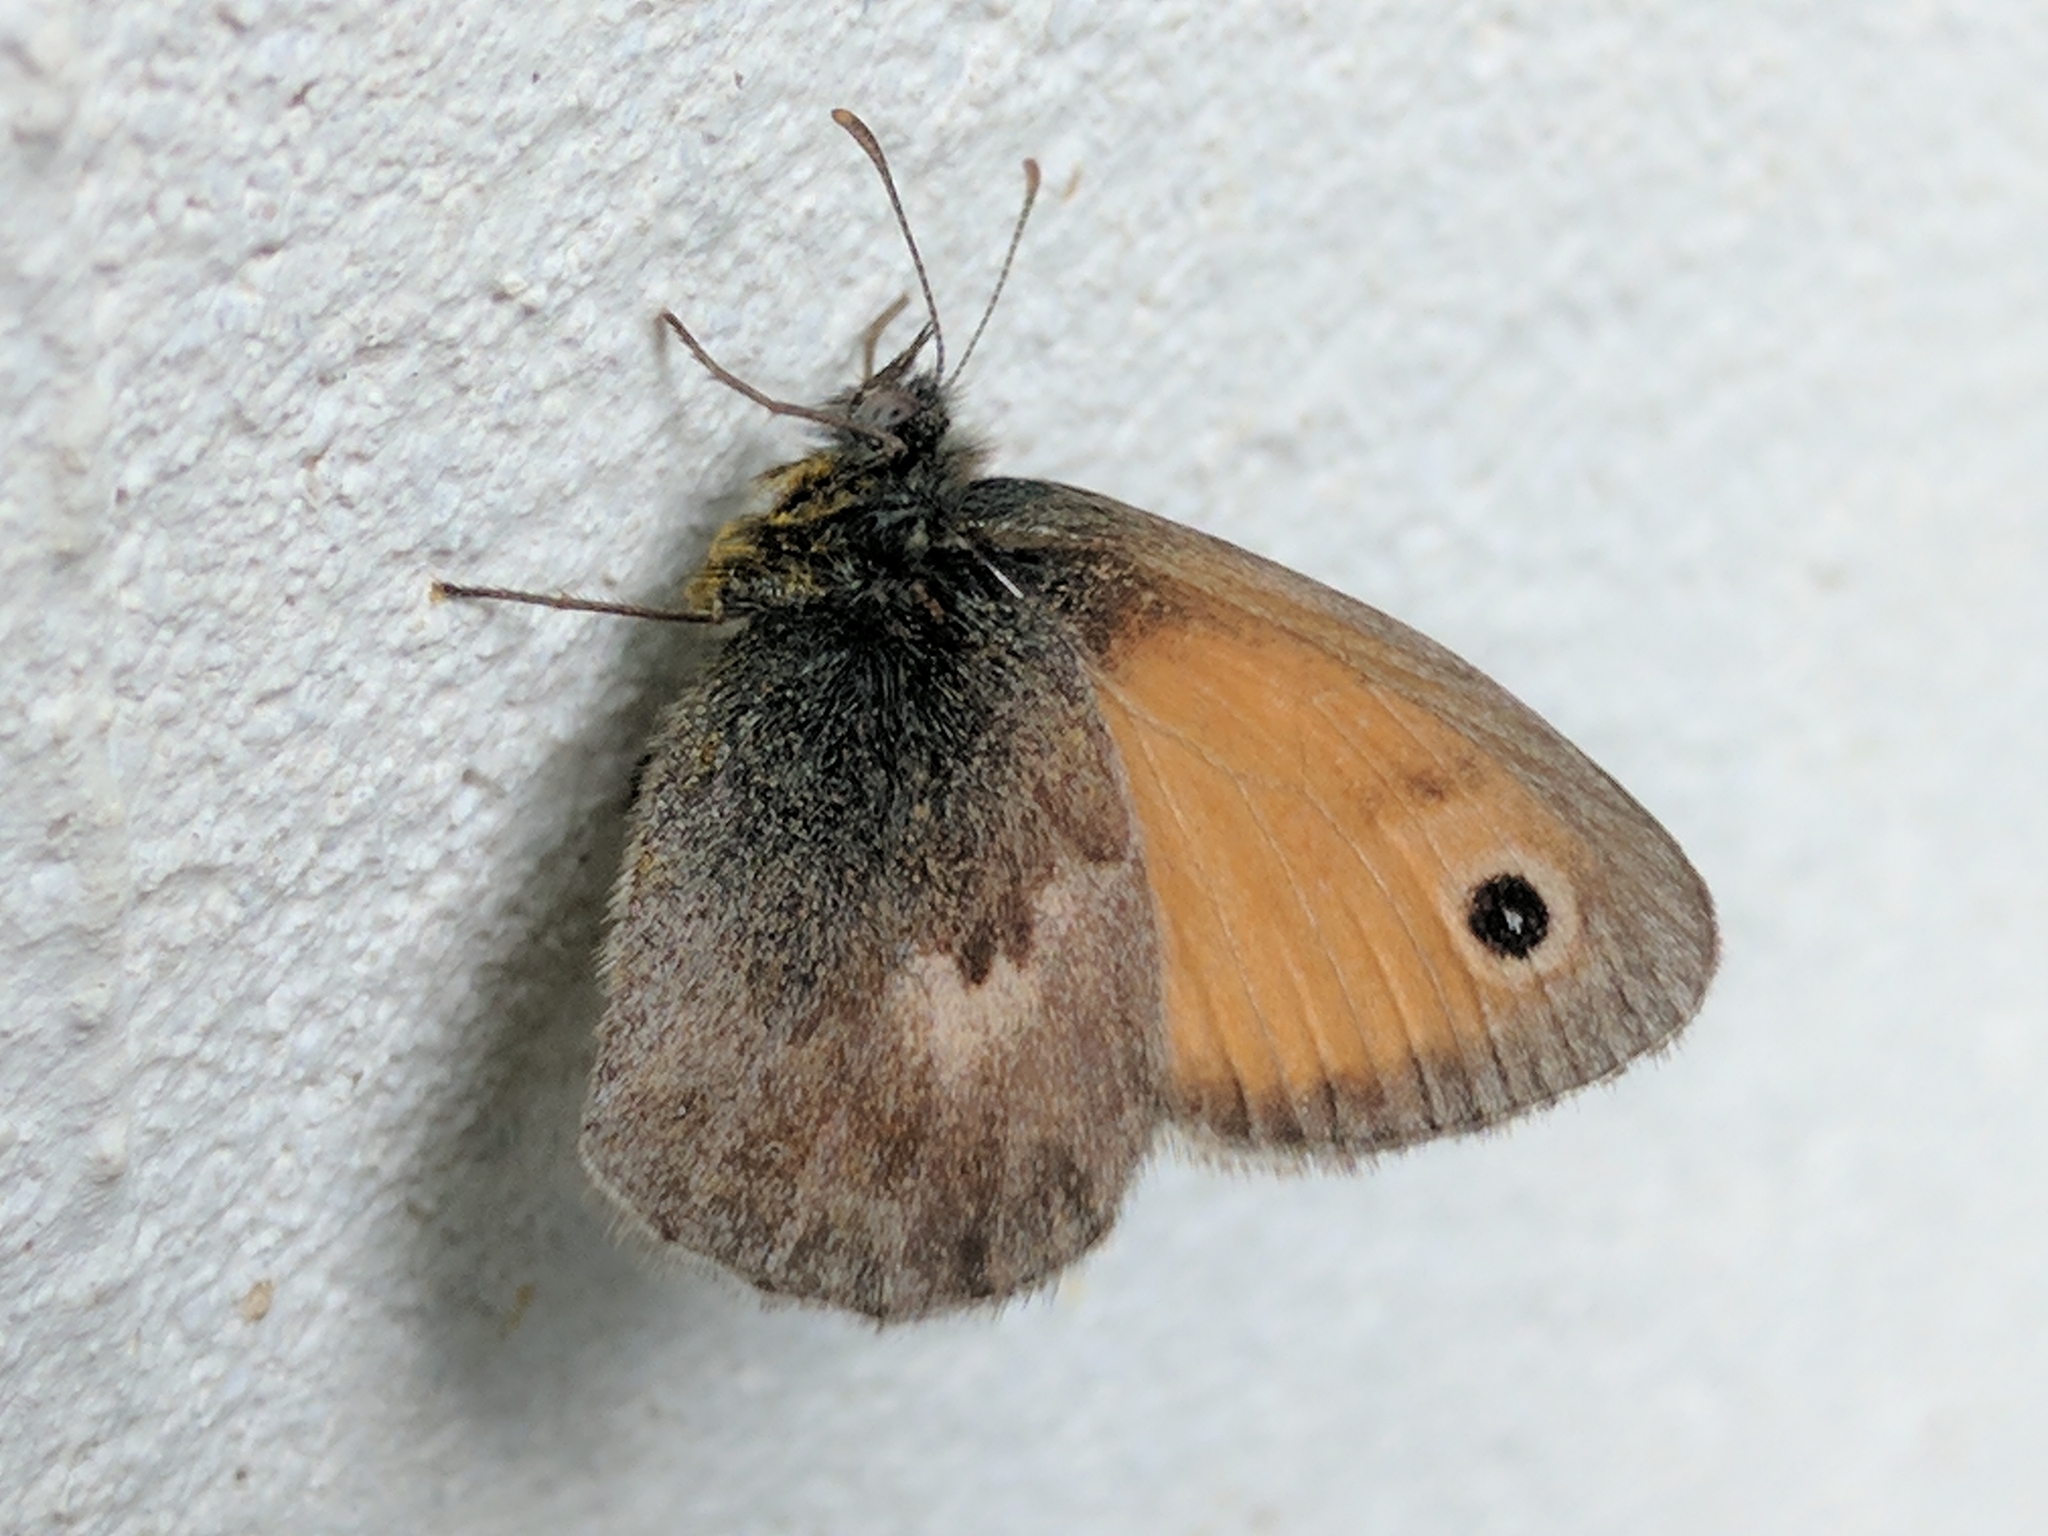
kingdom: Animalia
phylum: Arthropoda
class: Insecta
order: Lepidoptera
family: Nymphalidae
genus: Coenonympha
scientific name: Coenonympha pamphilus
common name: Small heath
